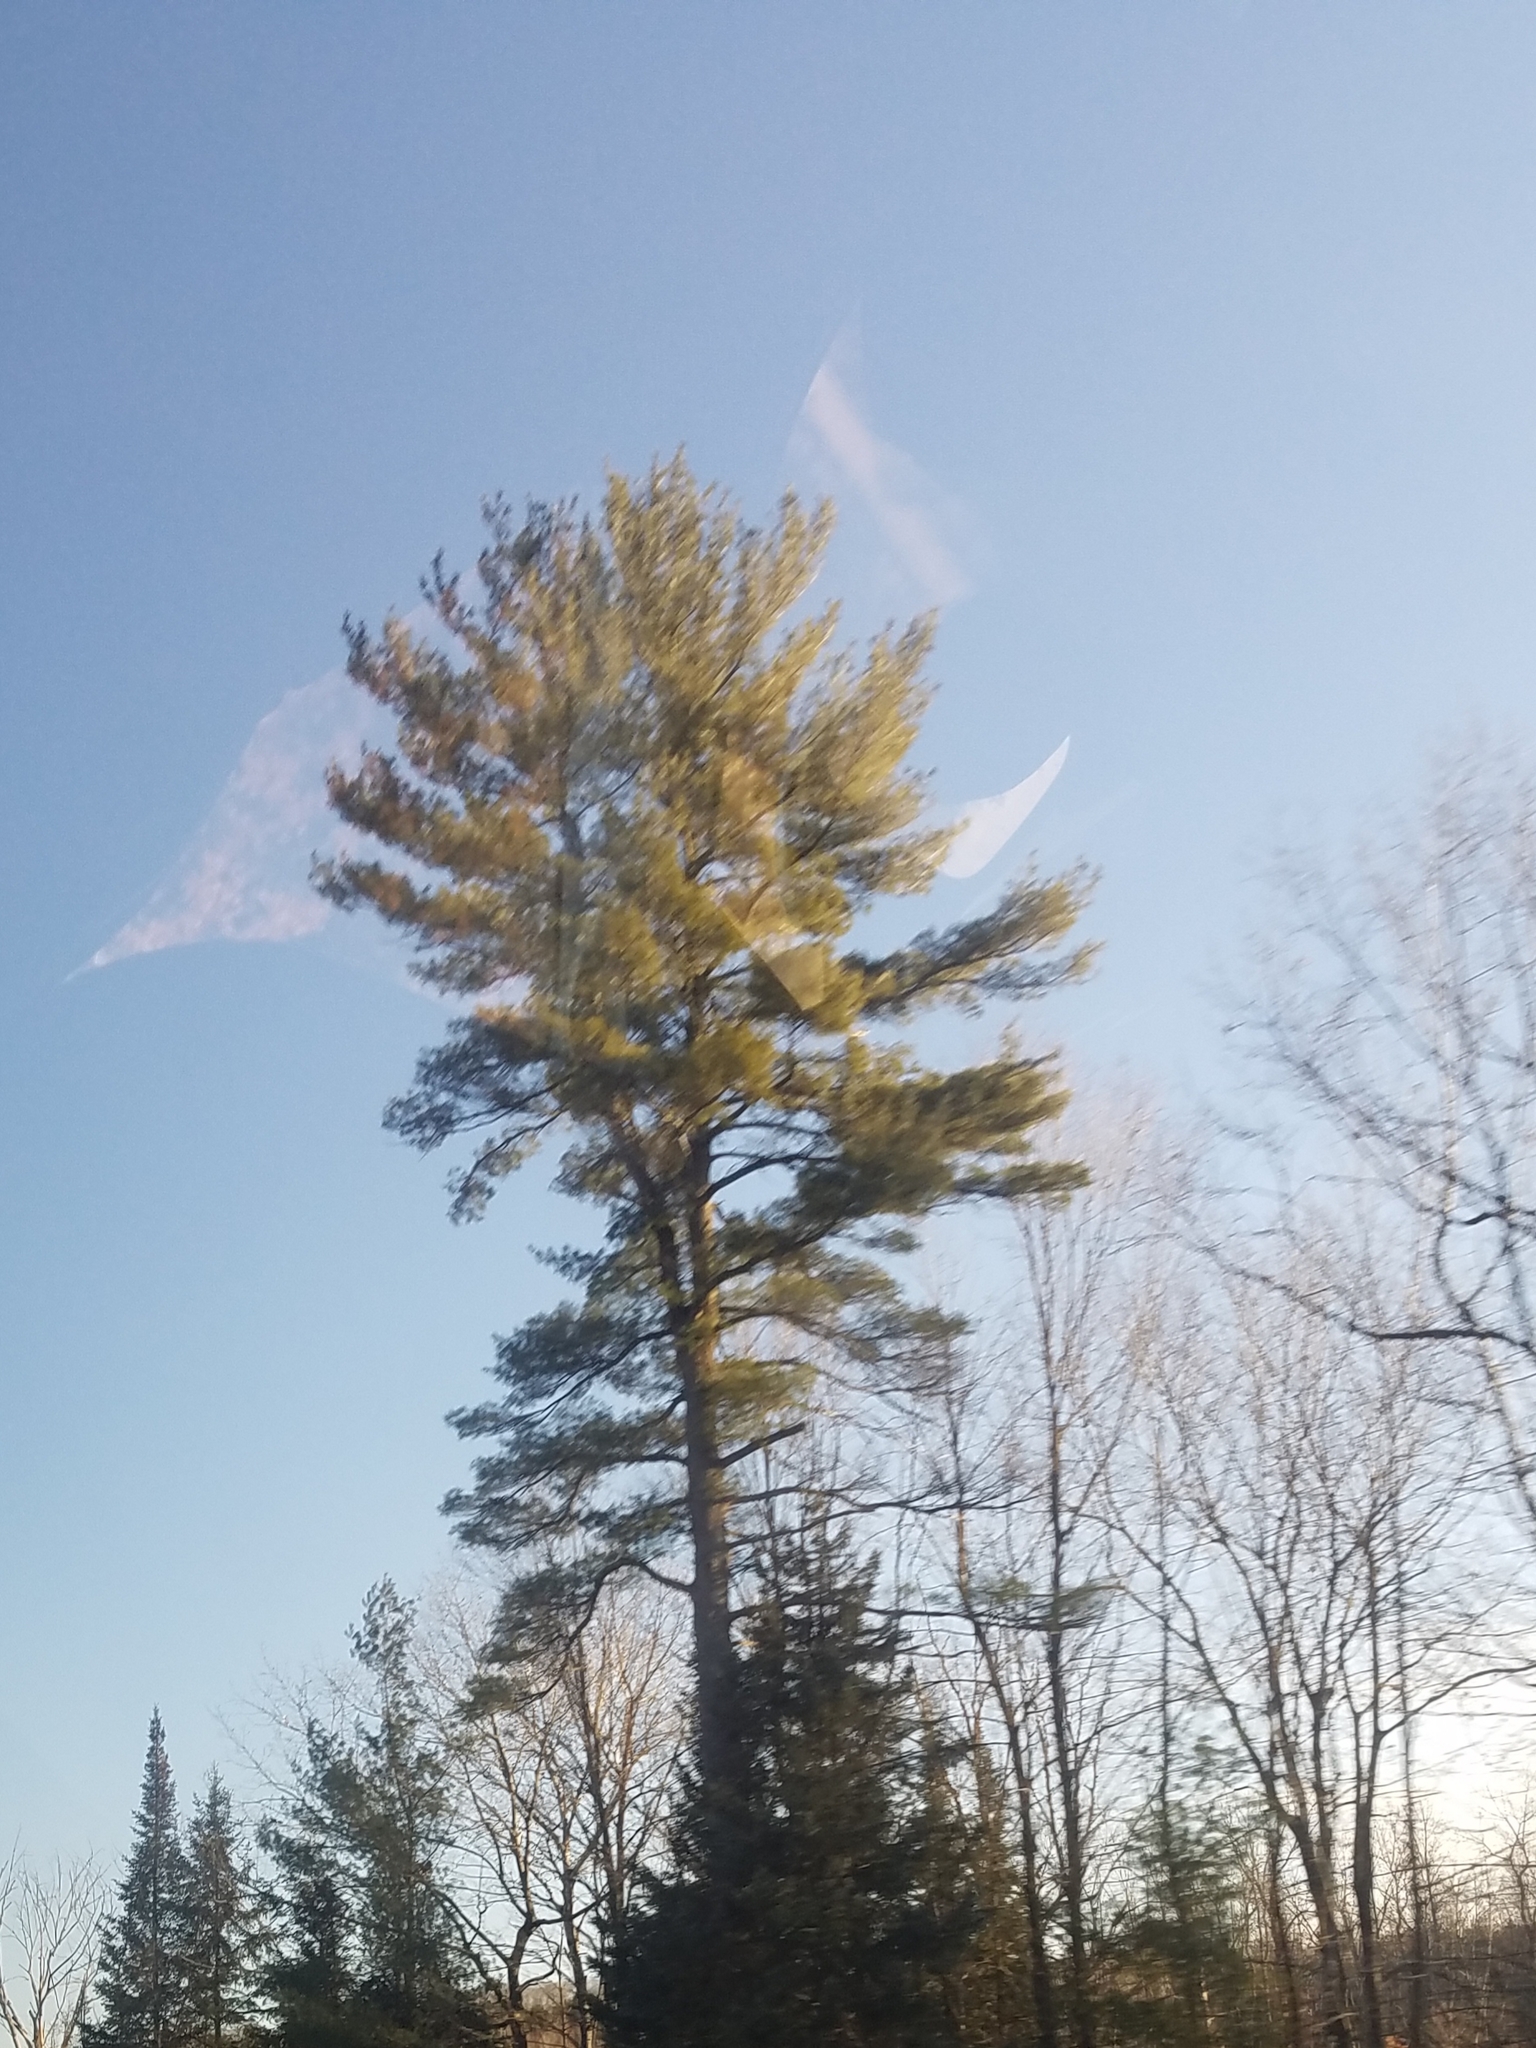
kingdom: Plantae
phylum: Tracheophyta
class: Pinopsida
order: Pinales
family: Pinaceae
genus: Pinus
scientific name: Pinus strobus
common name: Weymouth pine
